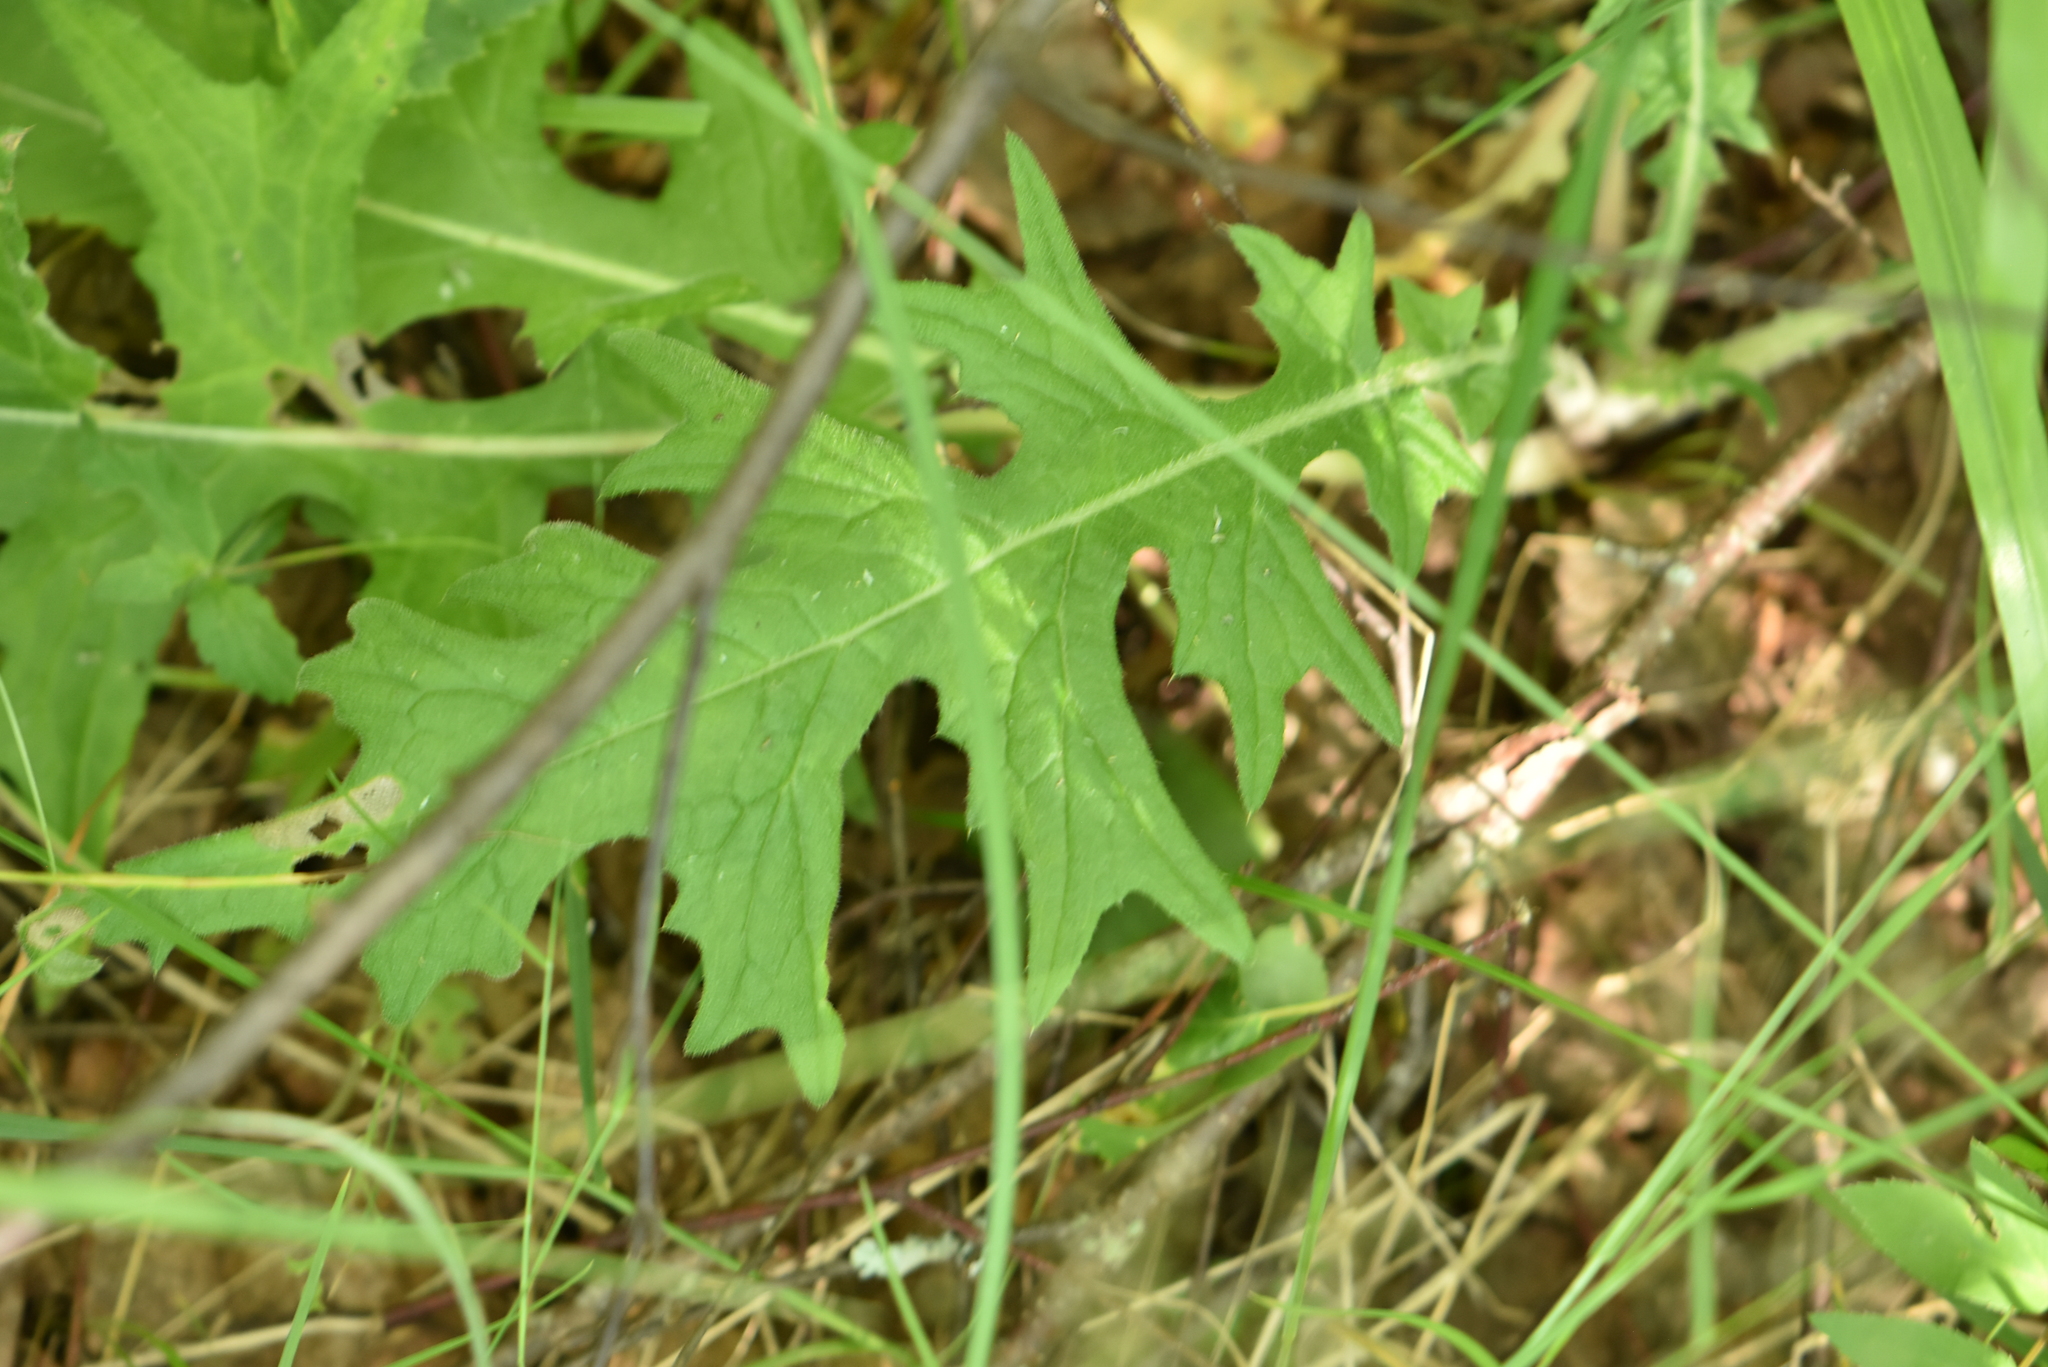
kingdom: Plantae
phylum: Tracheophyta
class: Magnoliopsida
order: Asterales
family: Asteraceae
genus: Cirsium
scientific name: Cirsium vulgare
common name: Bull thistle
